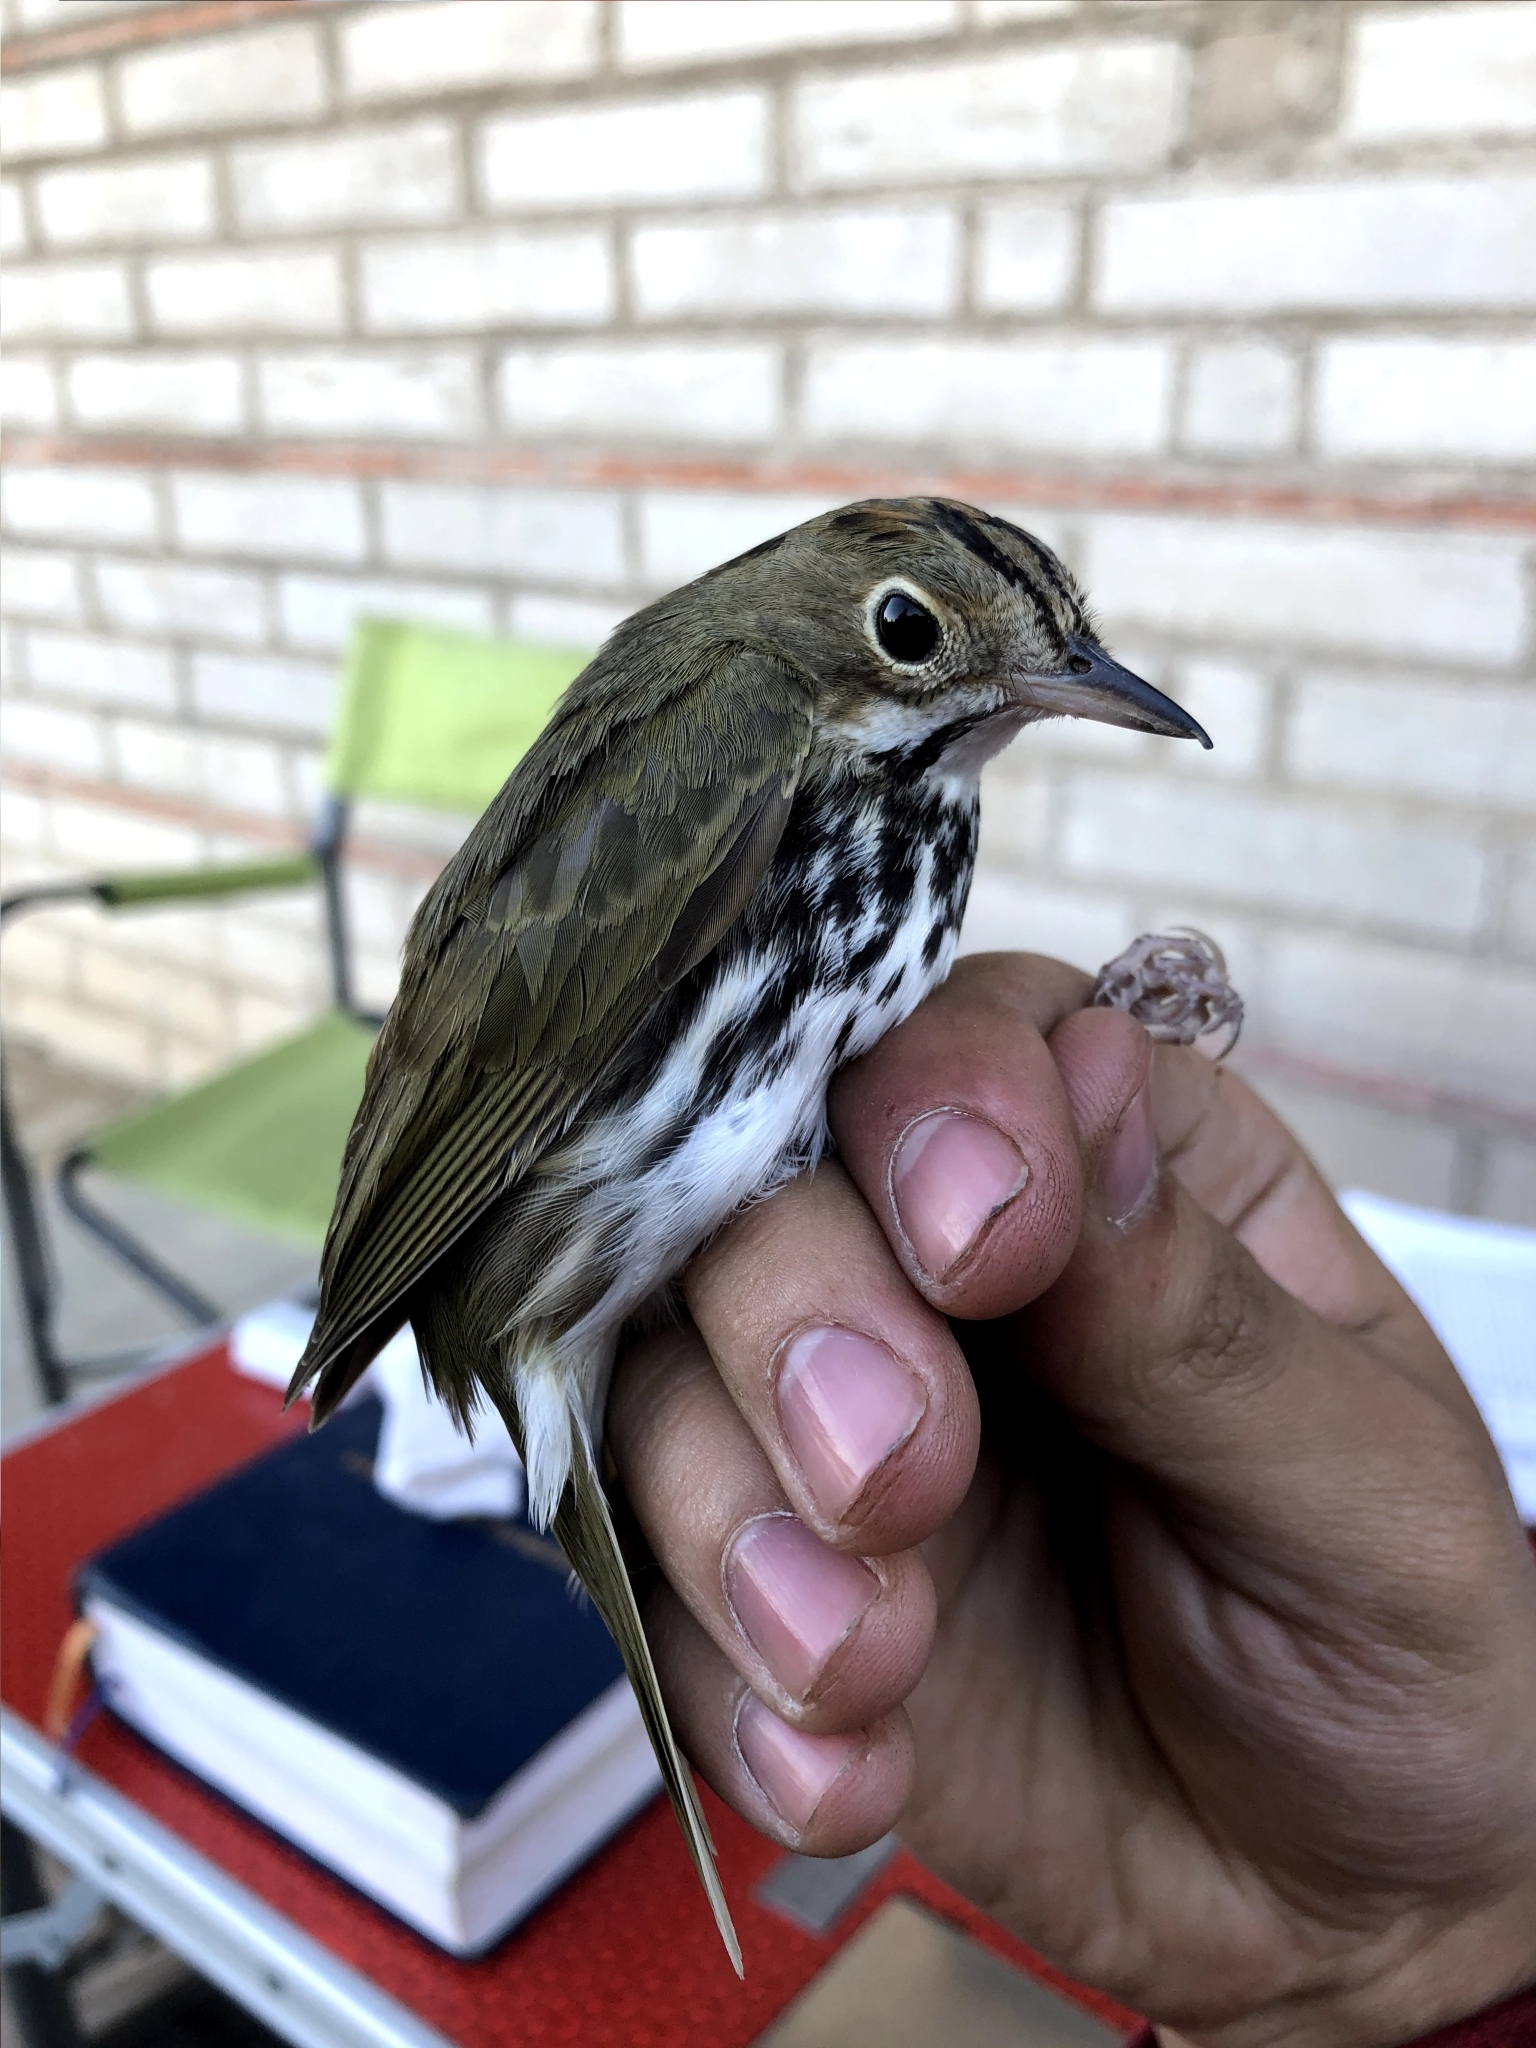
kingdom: Animalia
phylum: Chordata
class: Aves
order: Passeriformes
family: Parulidae
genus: Seiurus
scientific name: Seiurus aurocapilla
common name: Ovenbird
